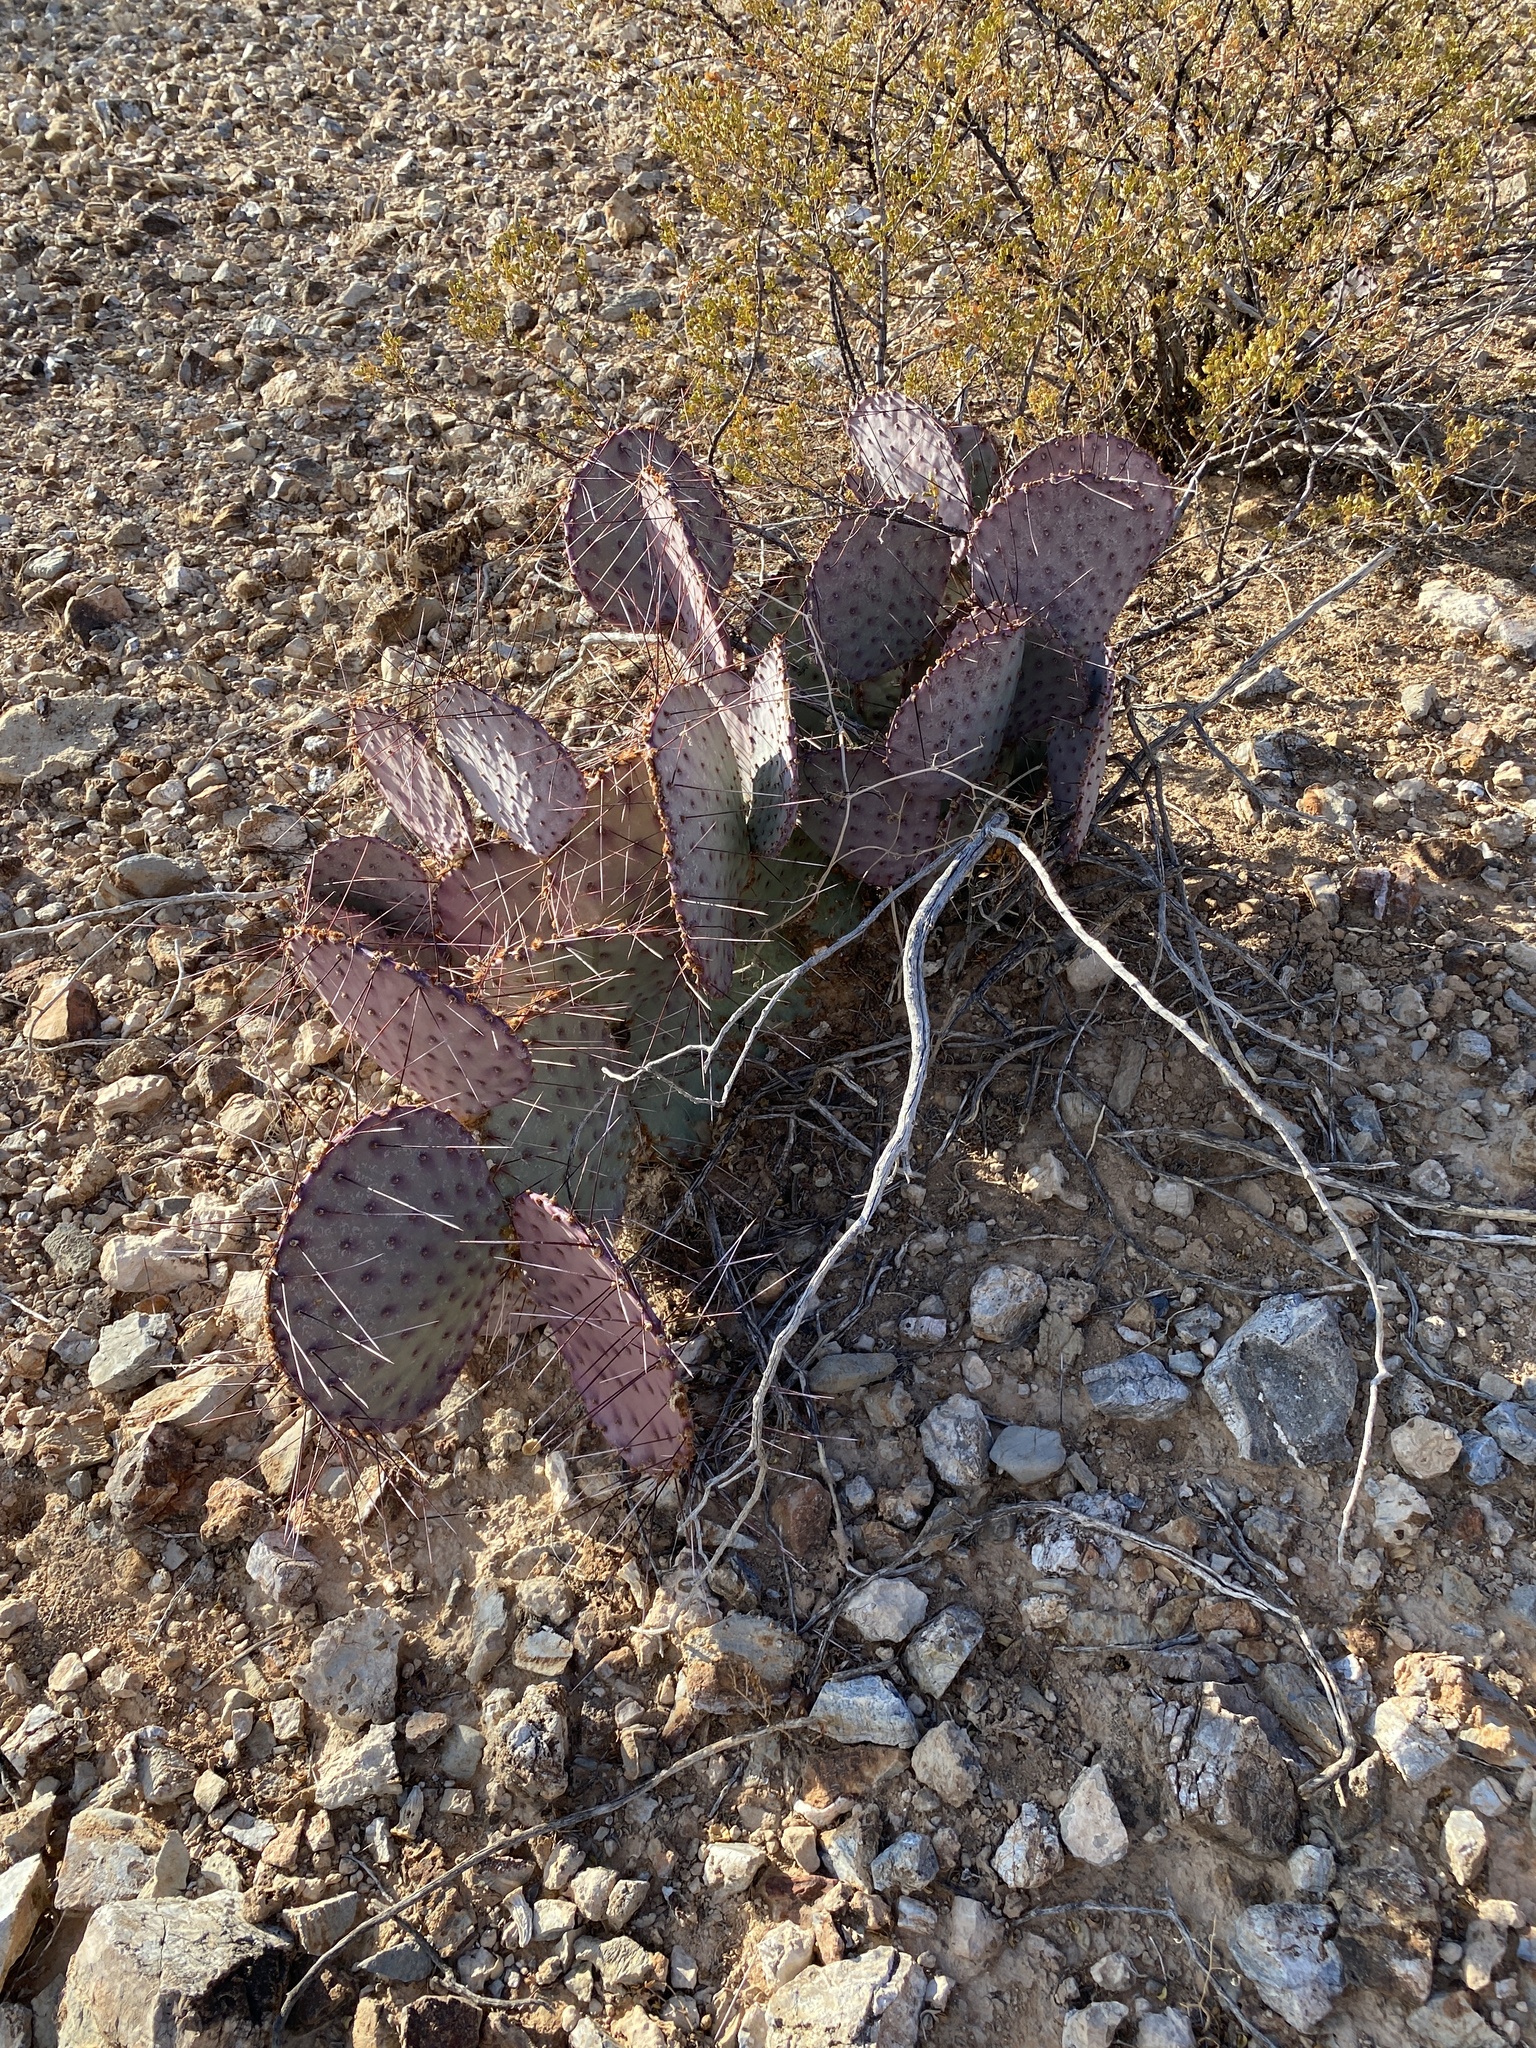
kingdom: Plantae
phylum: Tracheophyta
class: Magnoliopsida
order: Caryophyllales
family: Cactaceae
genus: Opuntia
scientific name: Opuntia macrocentra
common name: Purple prickly-pear
